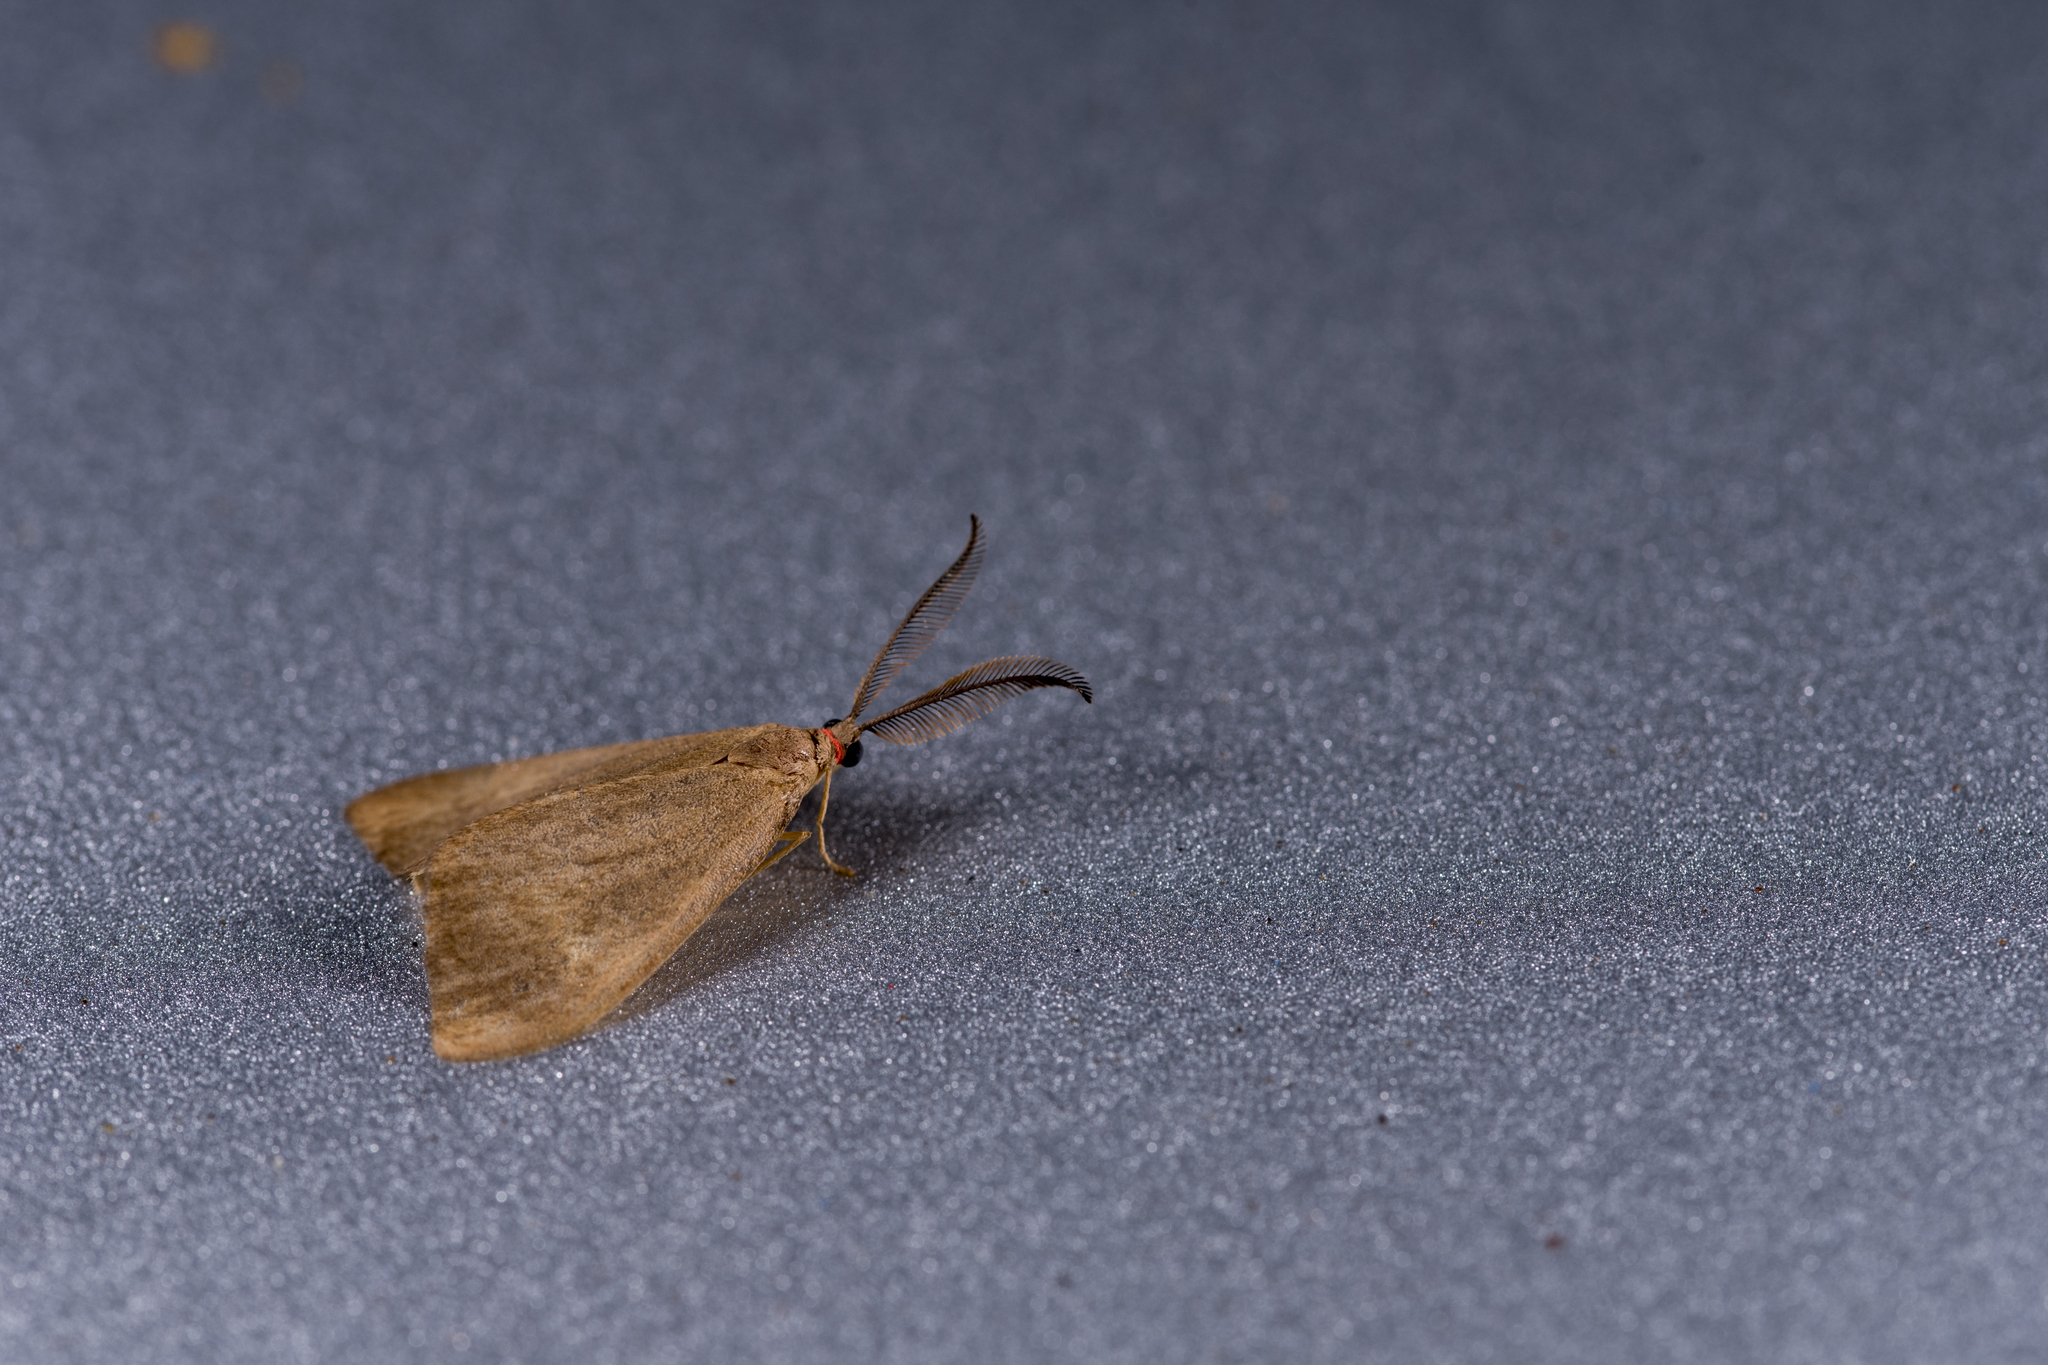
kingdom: Animalia
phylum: Arthropoda
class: Insecta
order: Lepidoptera
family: Zygaenidae
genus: Heteropan
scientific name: Heteropan submacula
